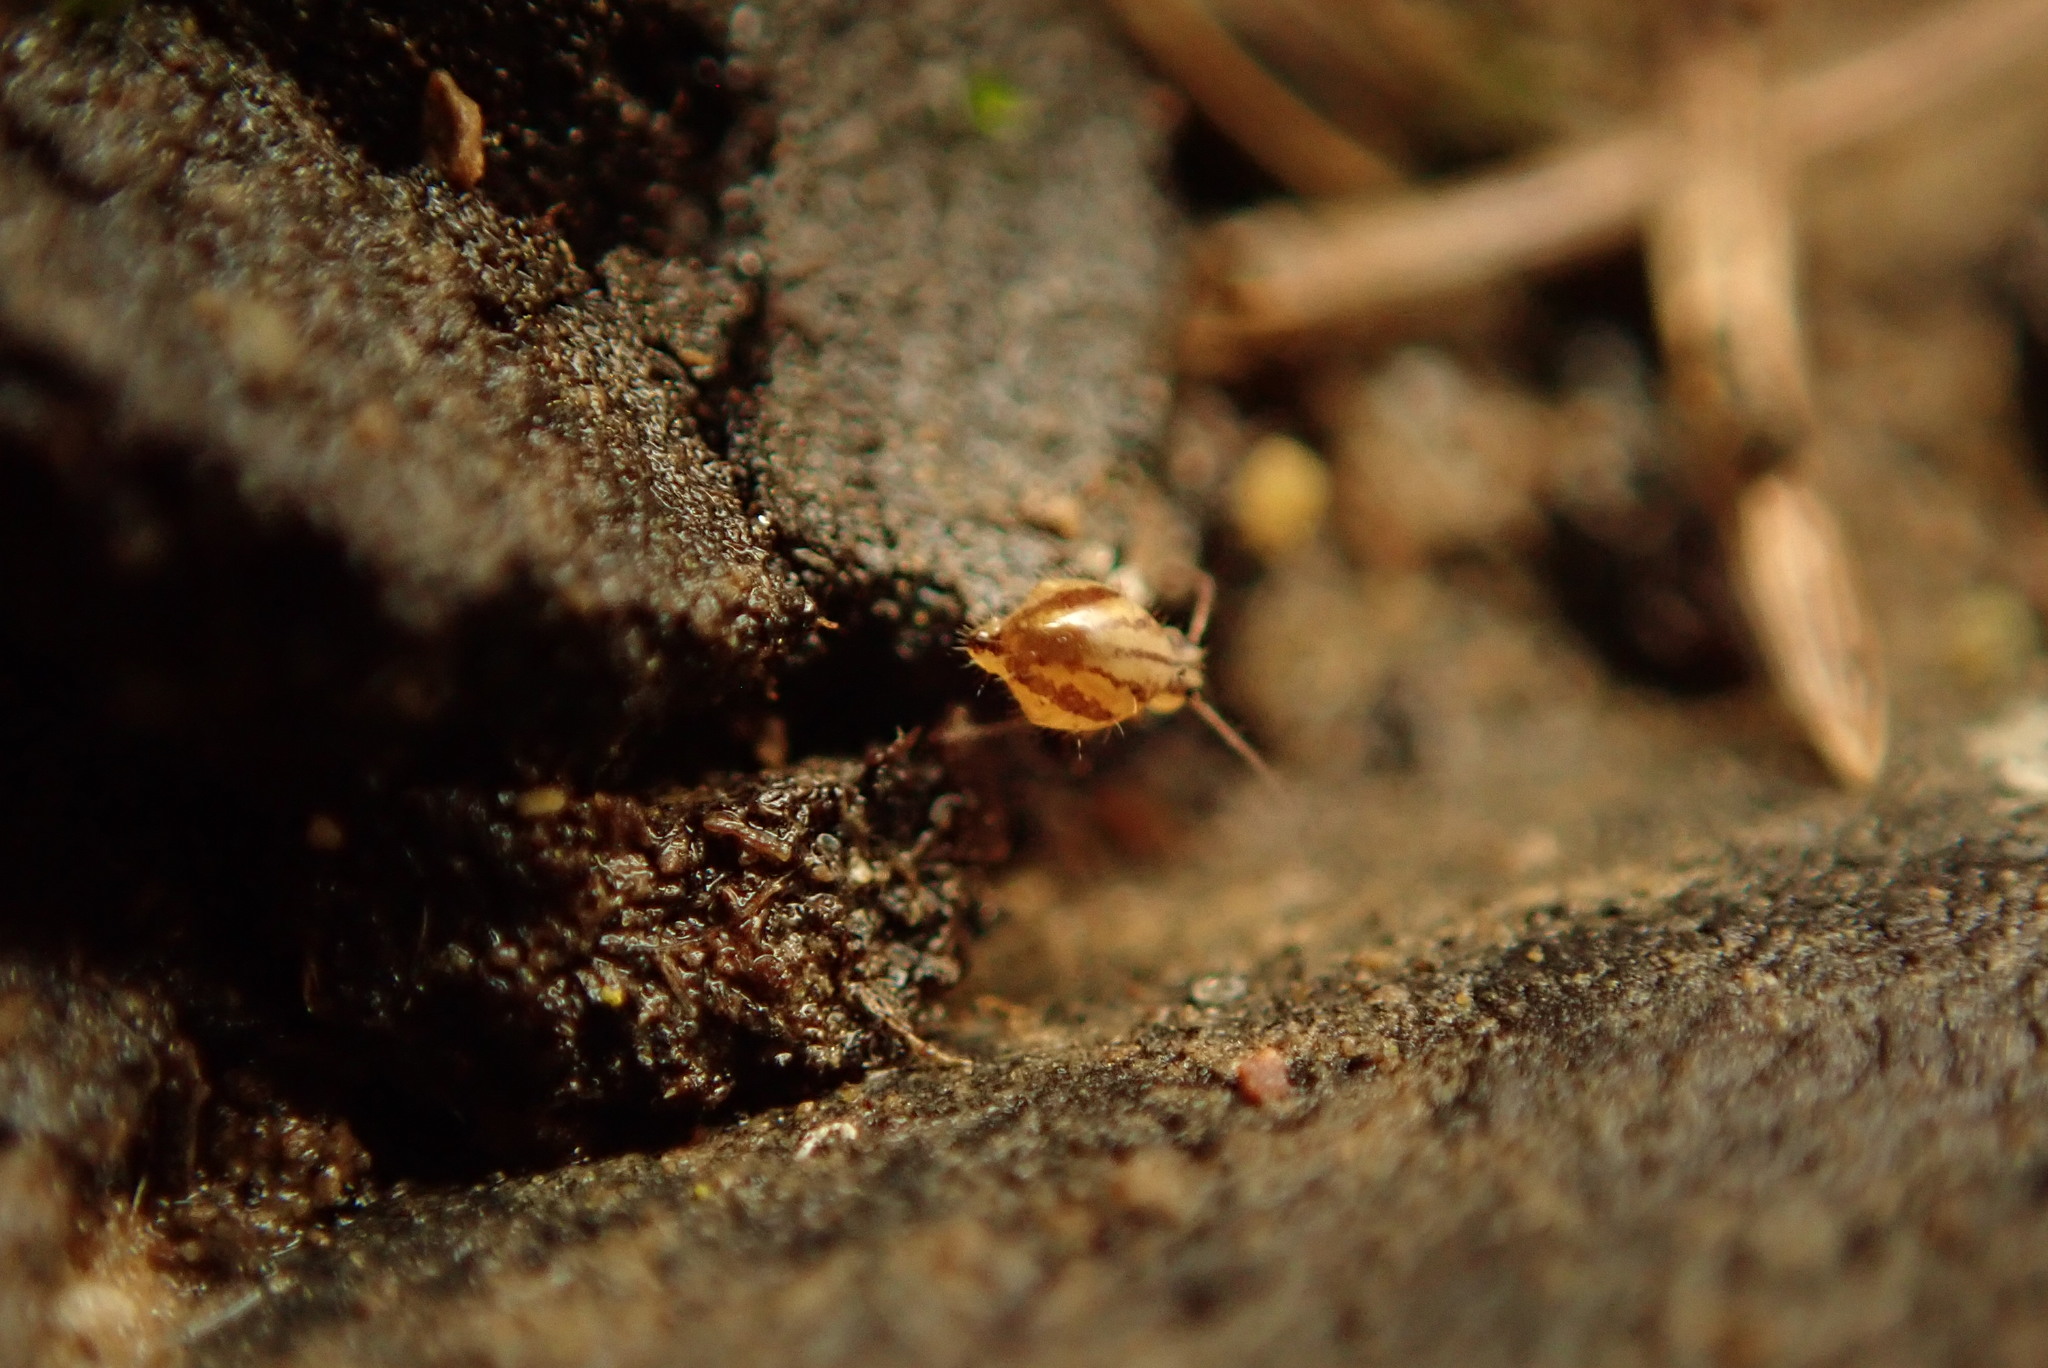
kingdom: Animalia
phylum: Arthropoda
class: Collembola
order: Symphypleona
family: Sminthuridae
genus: Sminthurus
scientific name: Sminthurus mencenbergae
